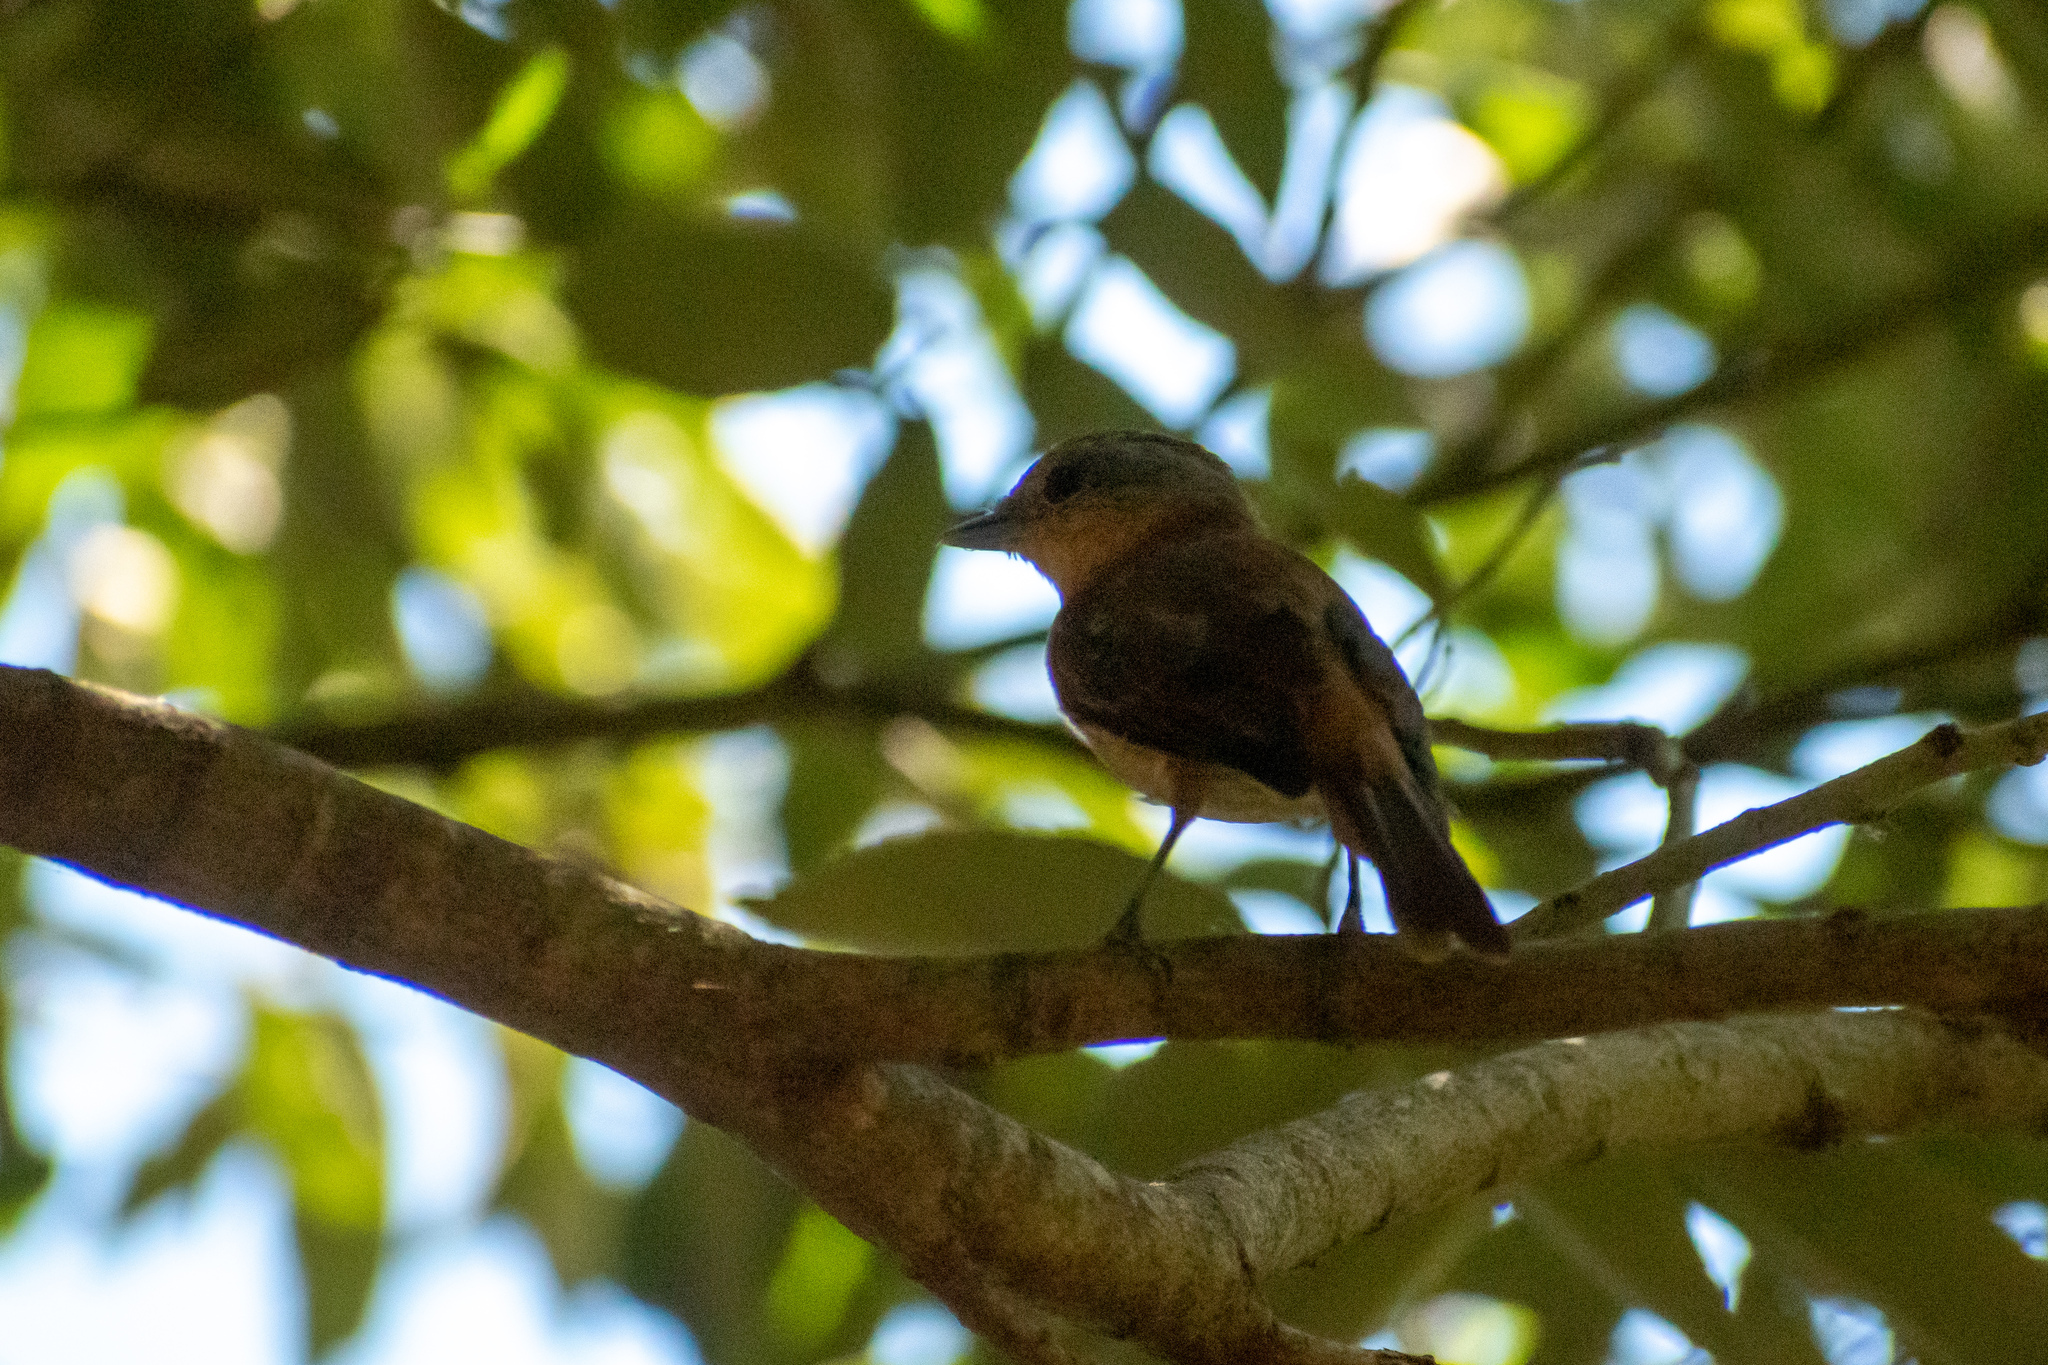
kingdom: Animalia
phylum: Chordata
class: Aves
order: Passeriformes
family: Cotingidae
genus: Pachyramphus
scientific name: Pachyramphus castaneus
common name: Chestnut-crowned becard
